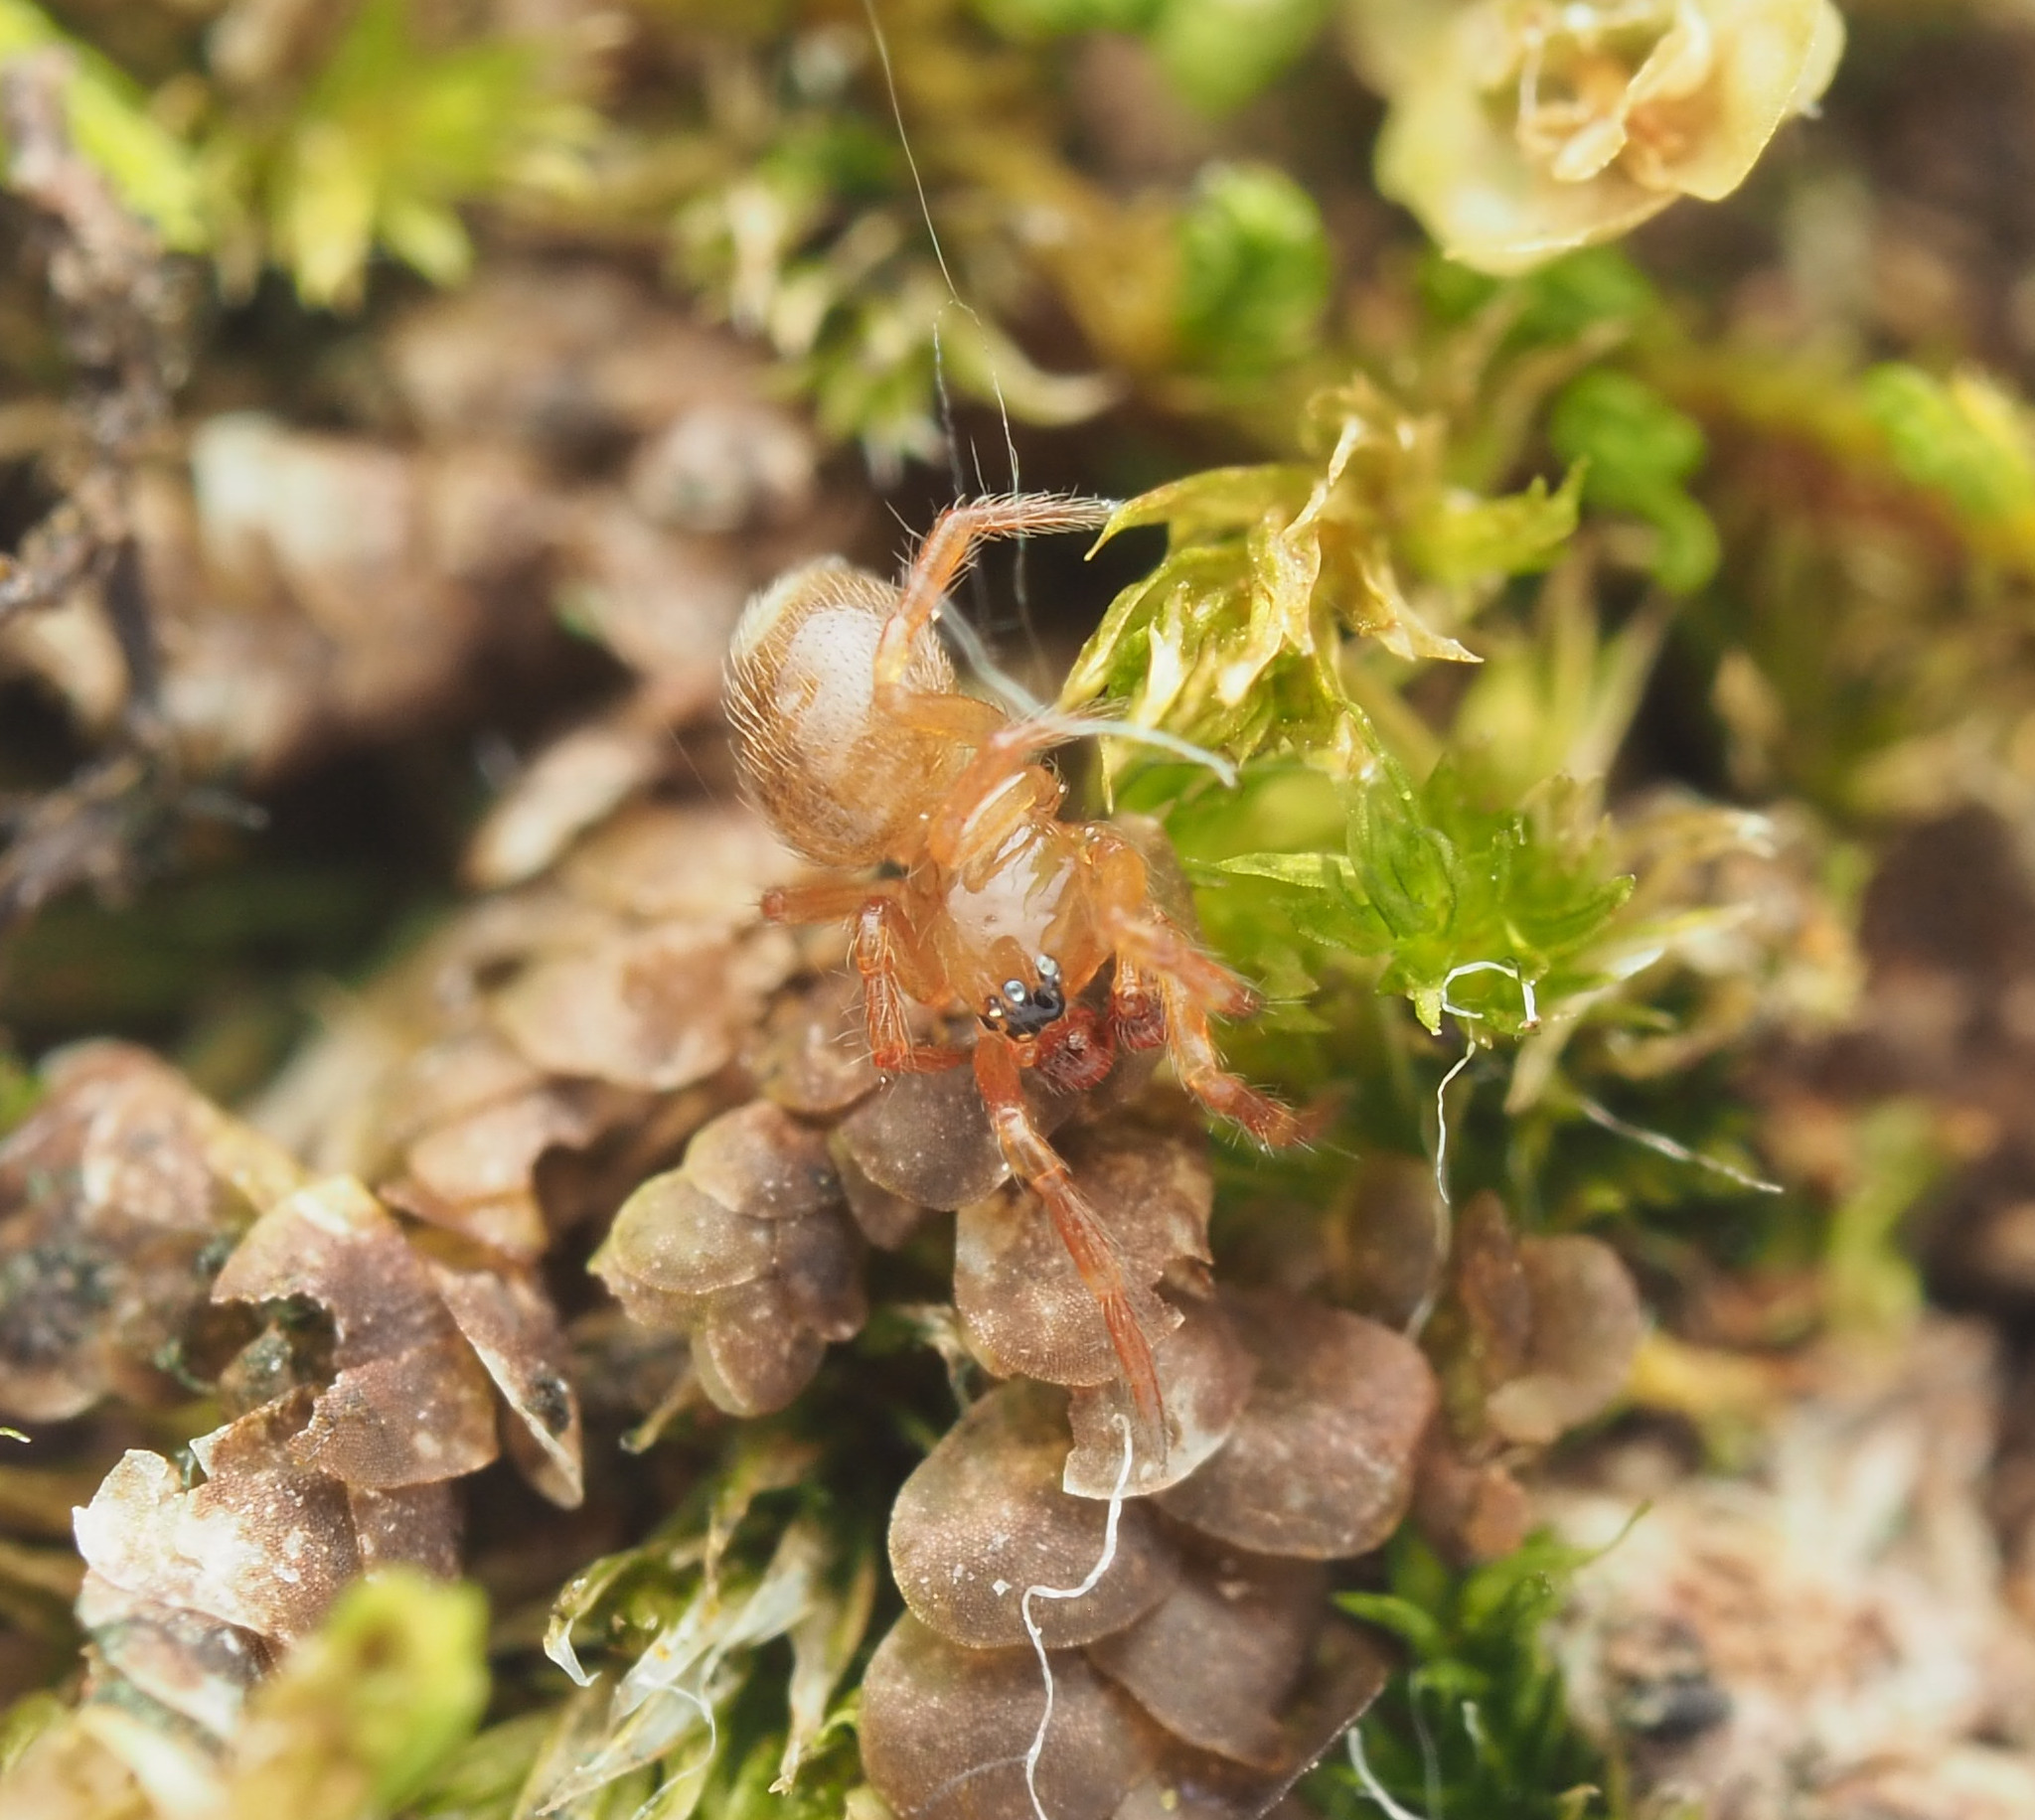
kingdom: Animalia
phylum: Arthropoda
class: Arachnida
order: Araneae
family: Theridiidae
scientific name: Theridiidae
